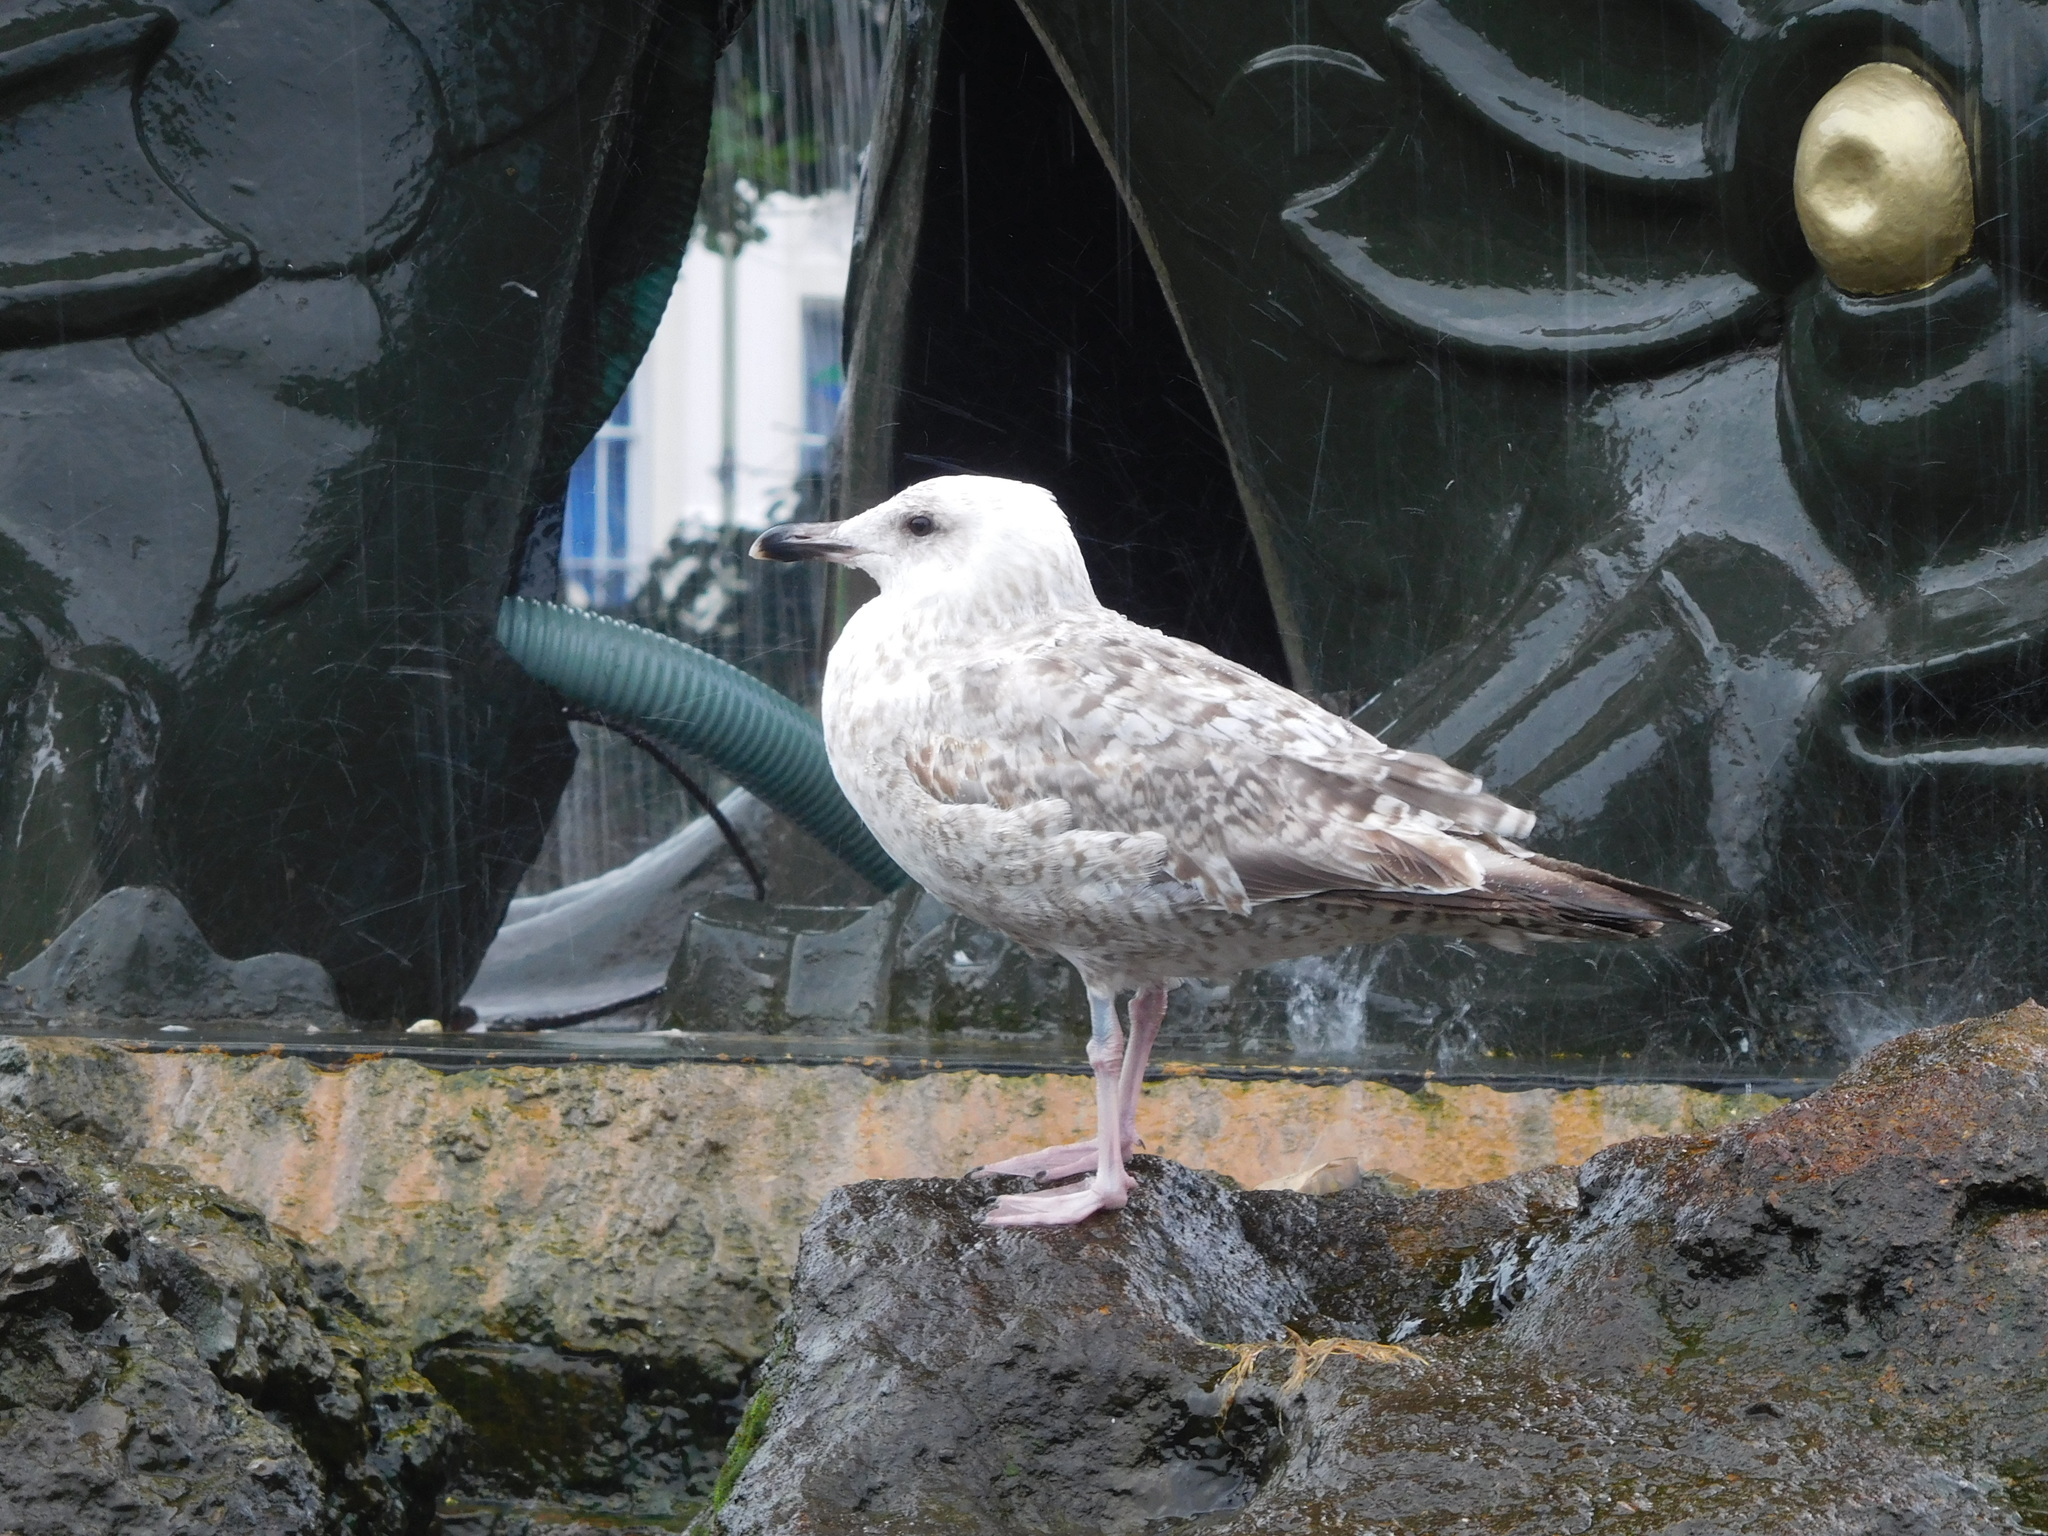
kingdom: Animalia
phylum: Chordata
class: Aves
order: Charadriiformes
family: Laridae
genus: Larus
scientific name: Larus argentatus
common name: Herring gull
